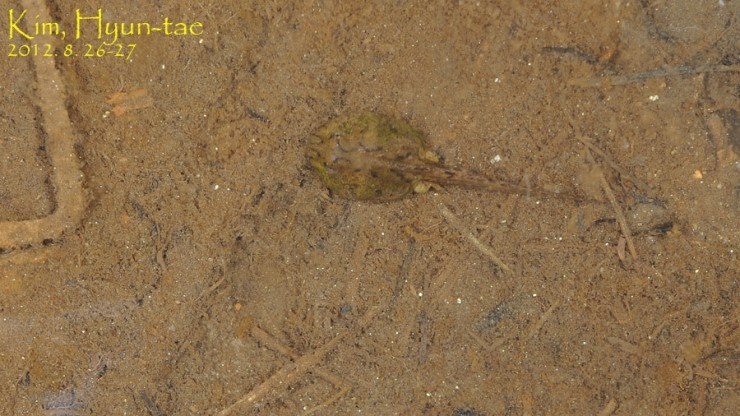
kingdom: Animalia
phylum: Chordata
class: Amphibia
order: Anura
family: Bombinatoridae
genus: Bombina
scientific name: Bombina orientalis
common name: Oriental firebelly toad
